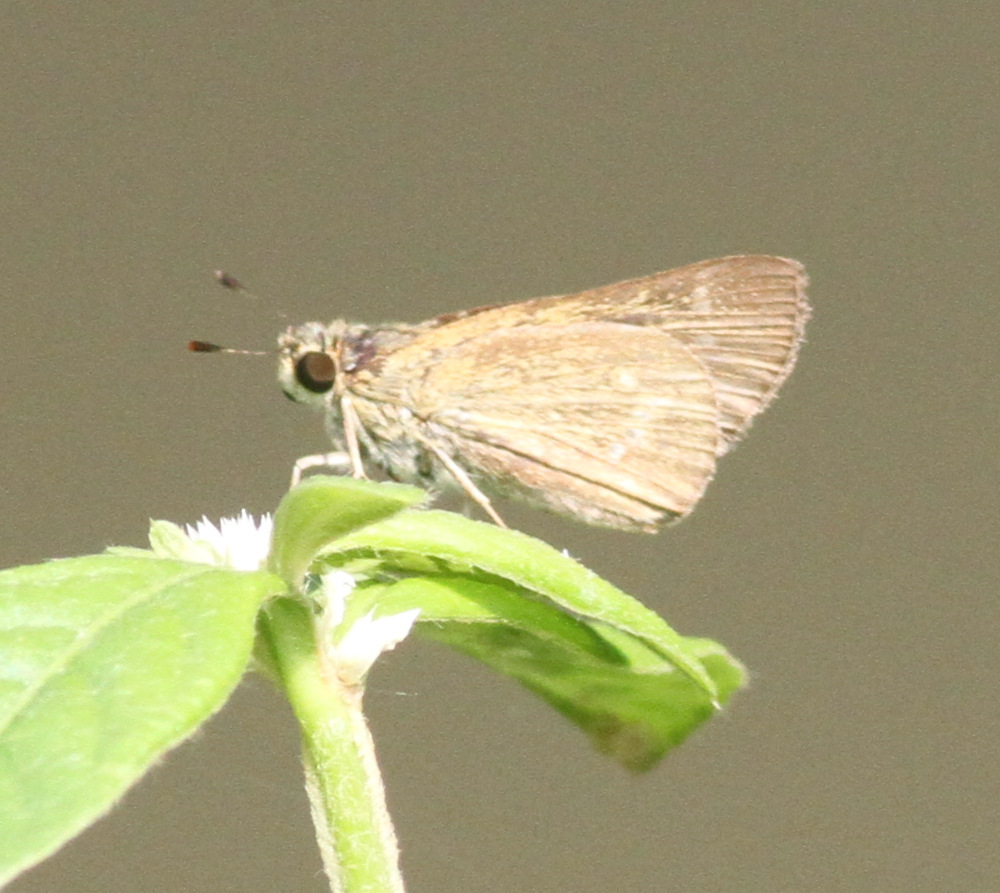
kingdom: Animalia
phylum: Arthropoda
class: Insecta
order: Lepidoptera
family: Hesperiidae
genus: Parnara
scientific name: Parnara naso
